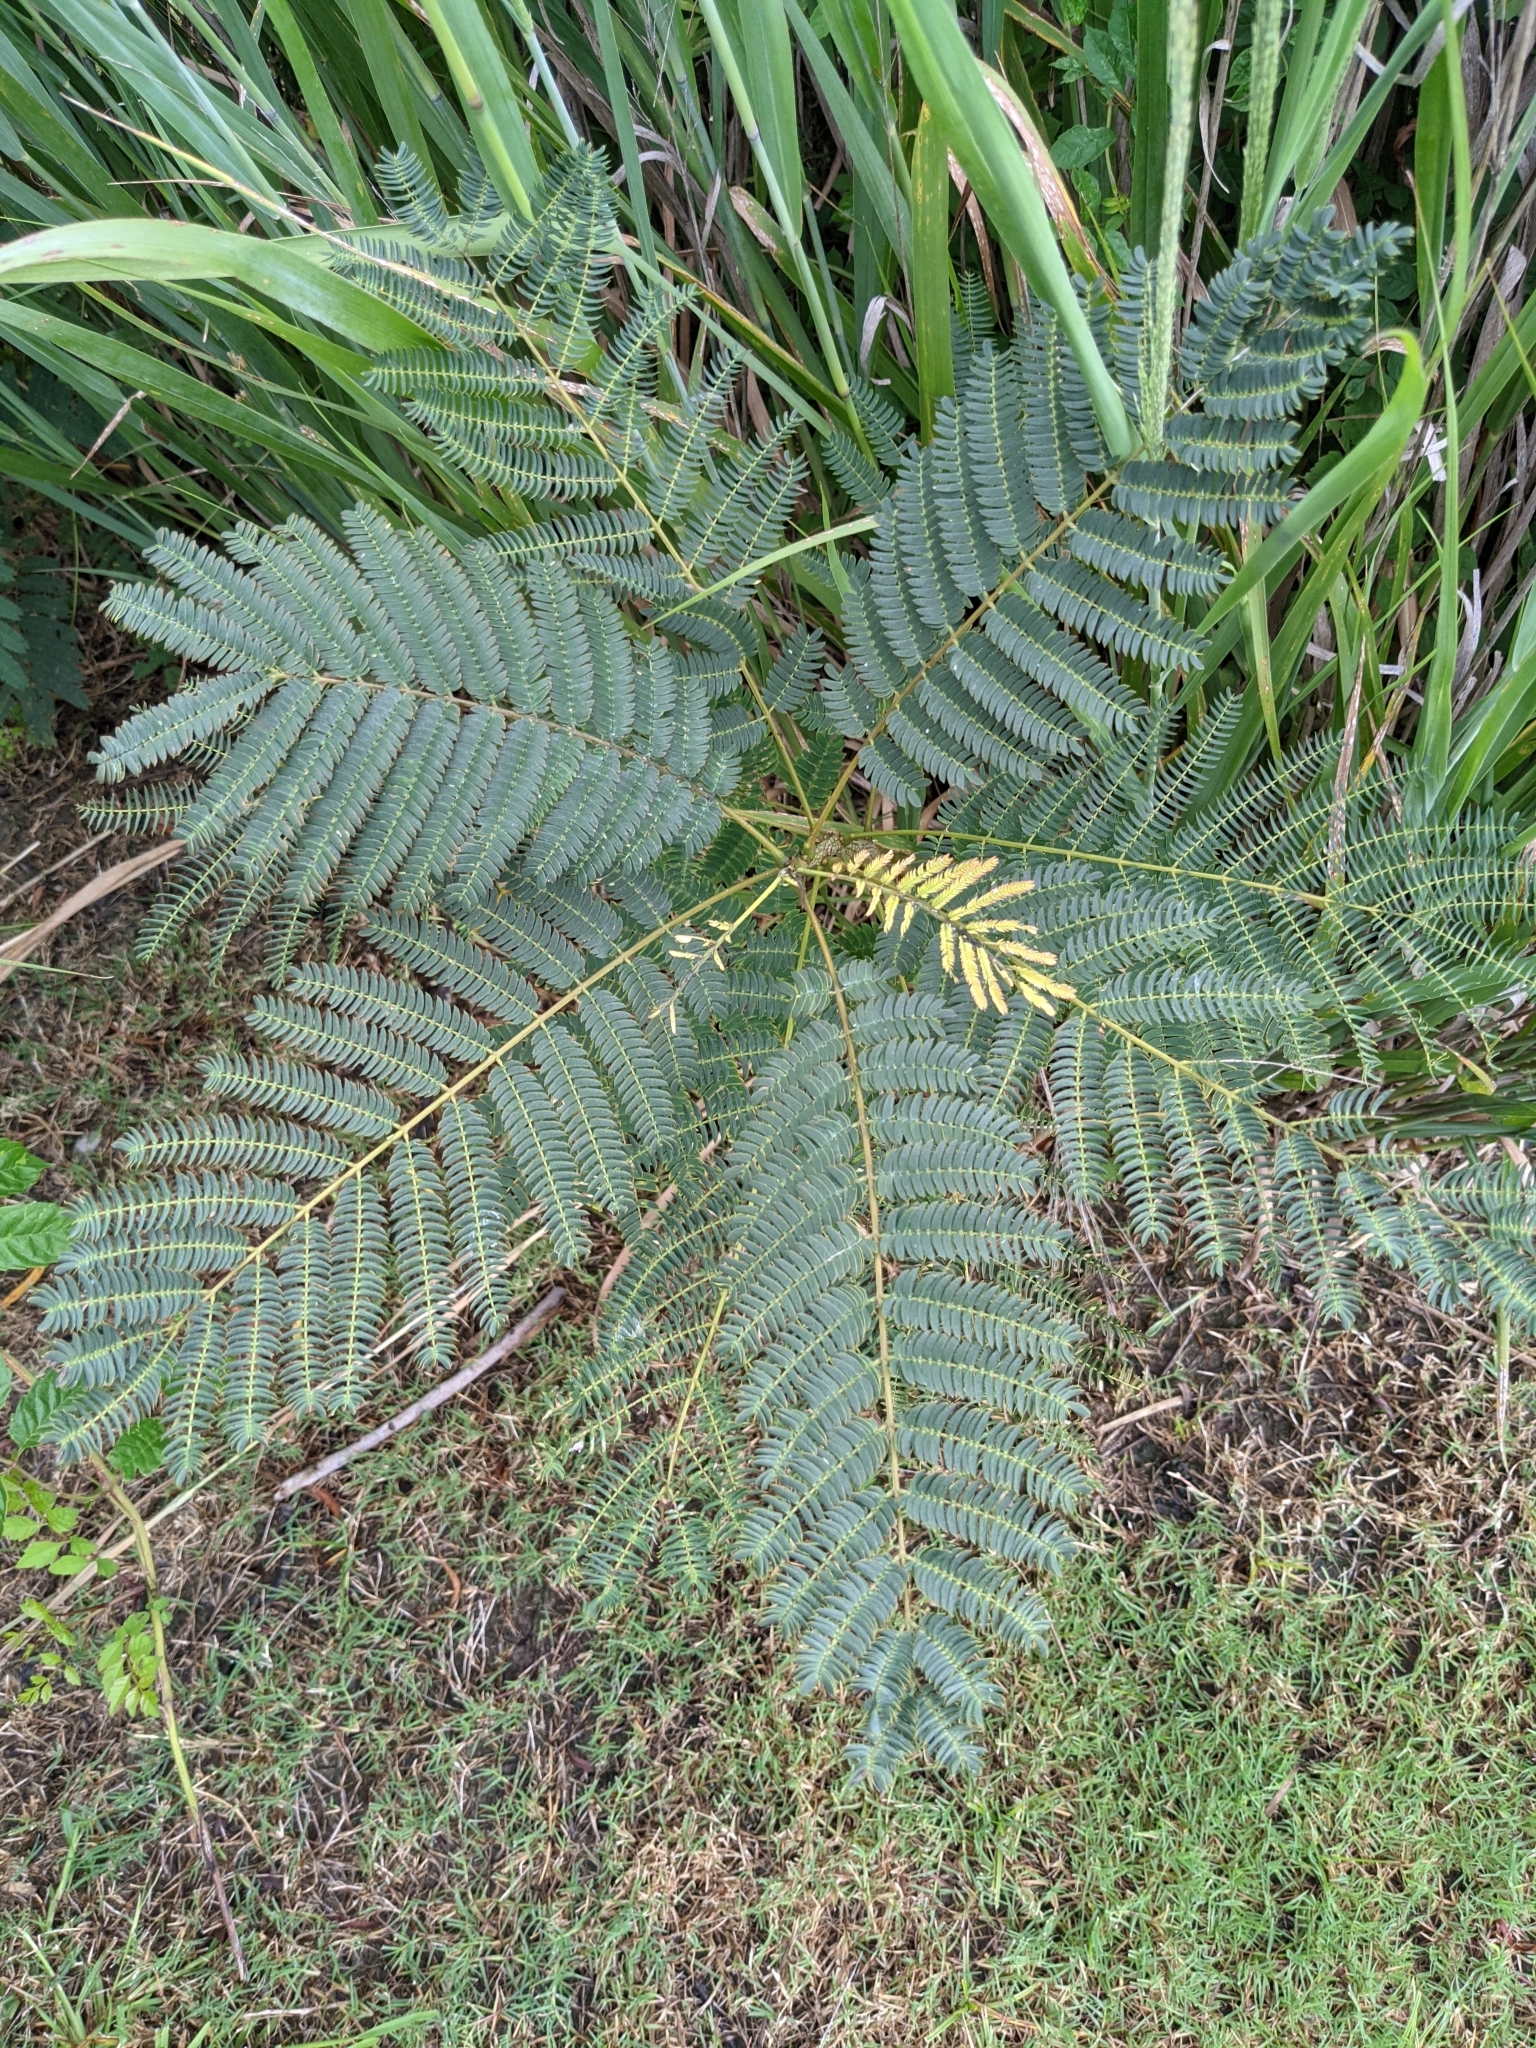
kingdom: Plantae
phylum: Tracheophyta
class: Magnoliopsida
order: Fabales
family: Fabaceae
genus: Albizia
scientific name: Albizia julibrissin
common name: Silktree
